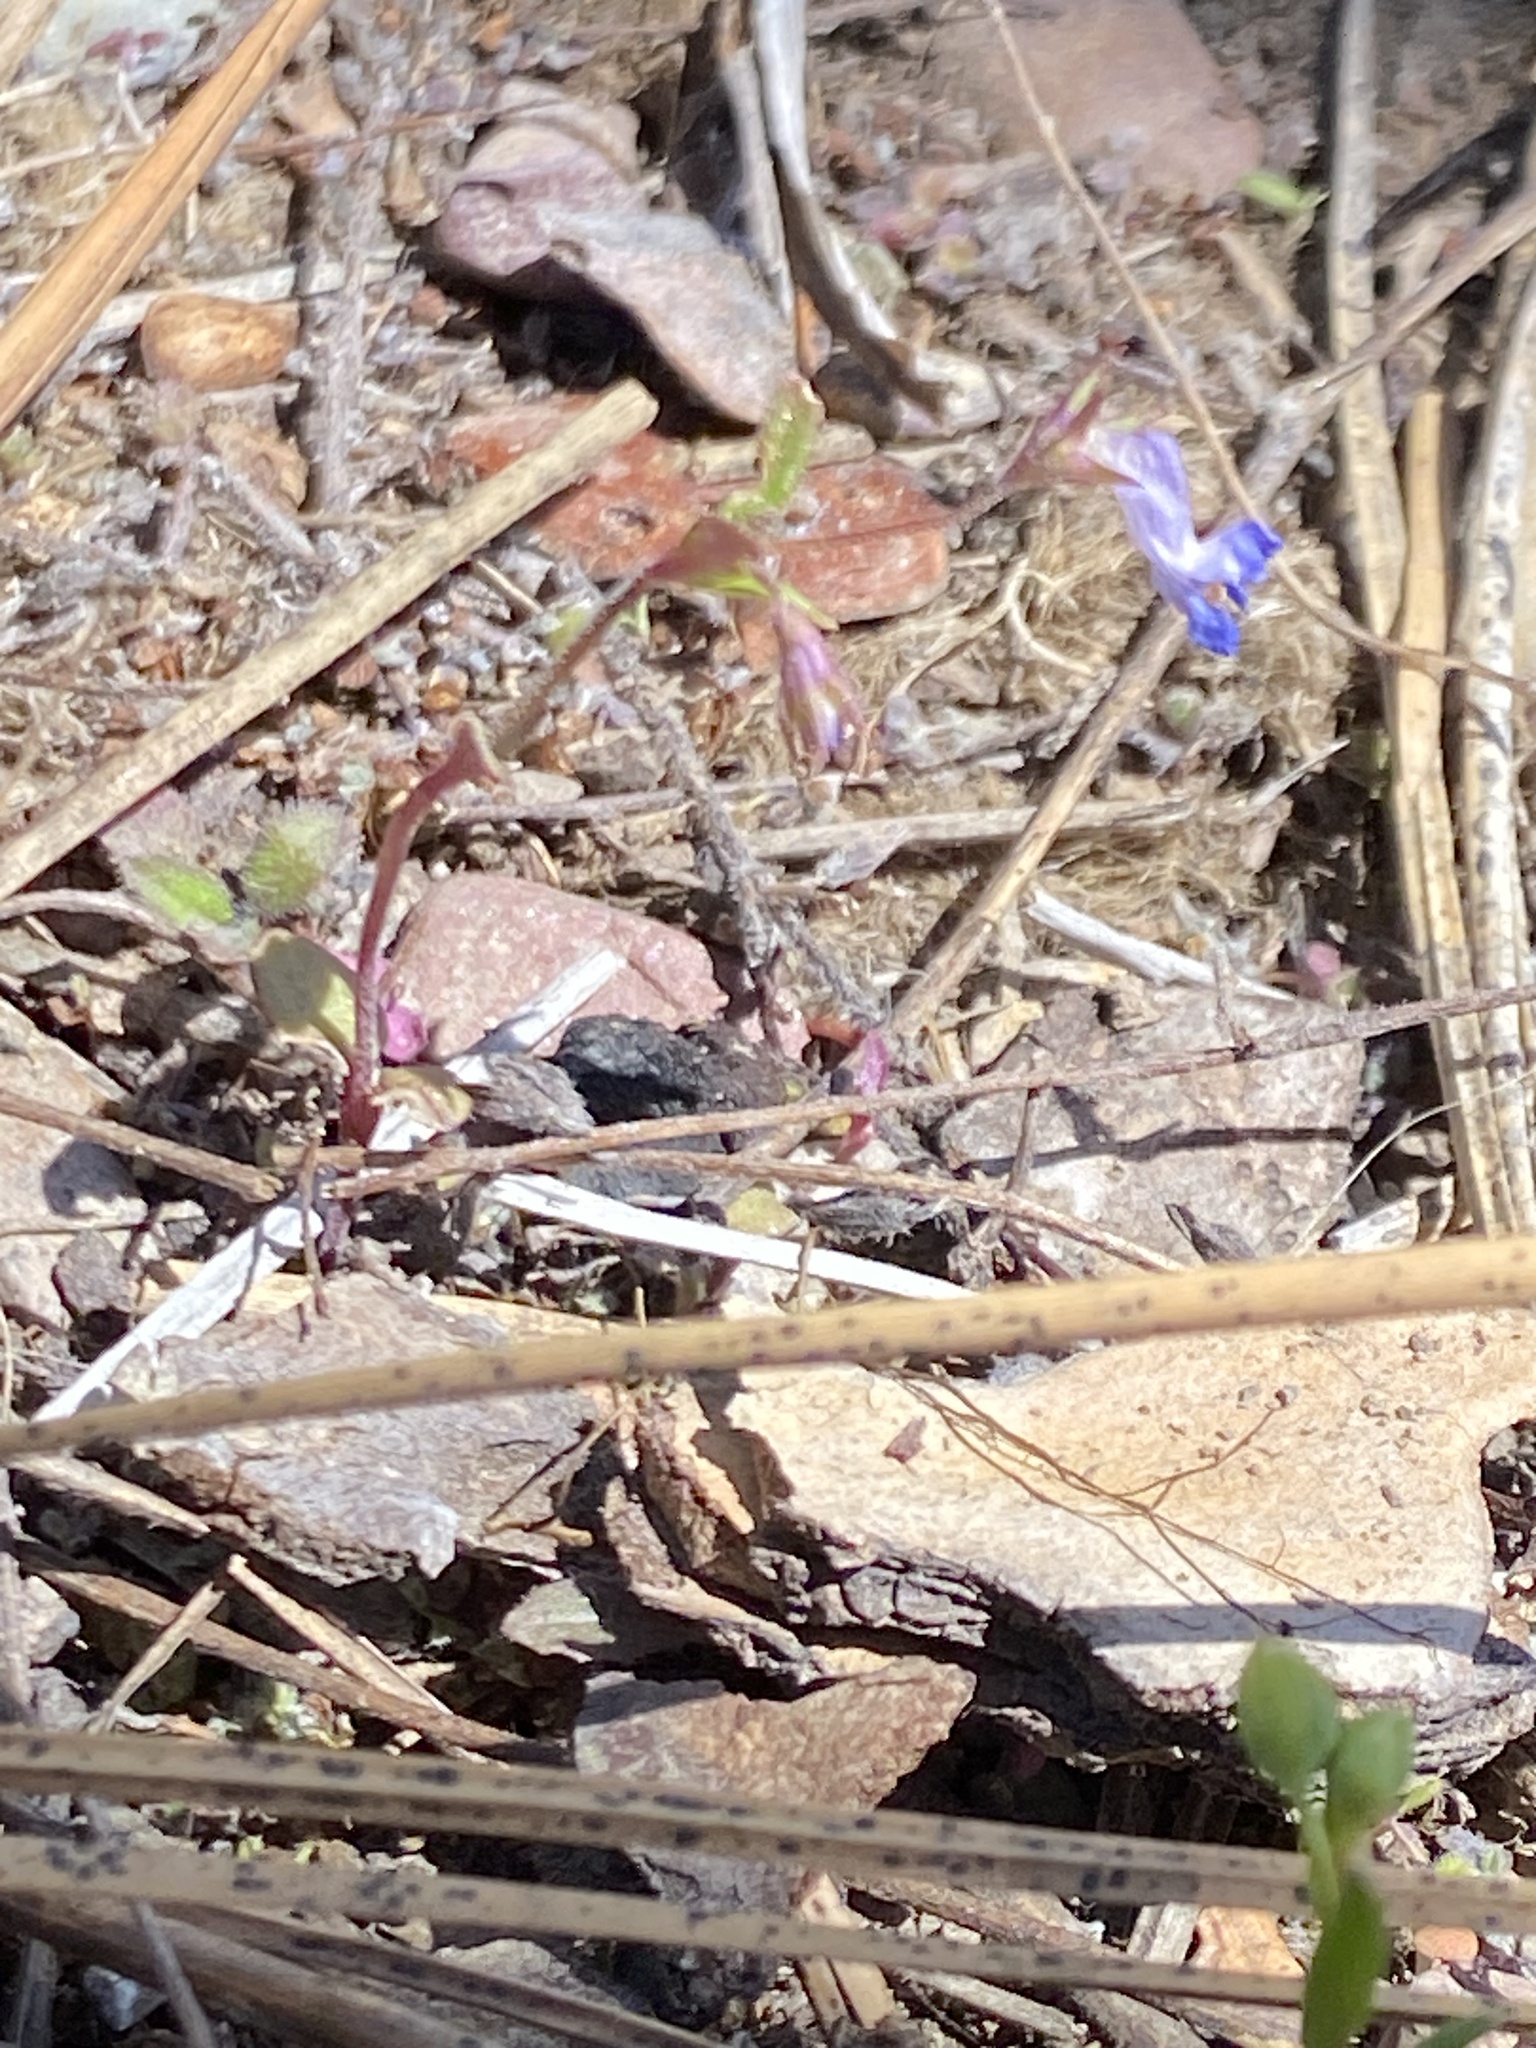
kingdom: Plantae
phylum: Tracheophyta
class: Magnoliopsida
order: Lamiales
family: Plantaginaceae
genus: Collinsia
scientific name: Collinsia parviflora
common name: Blue-lips
